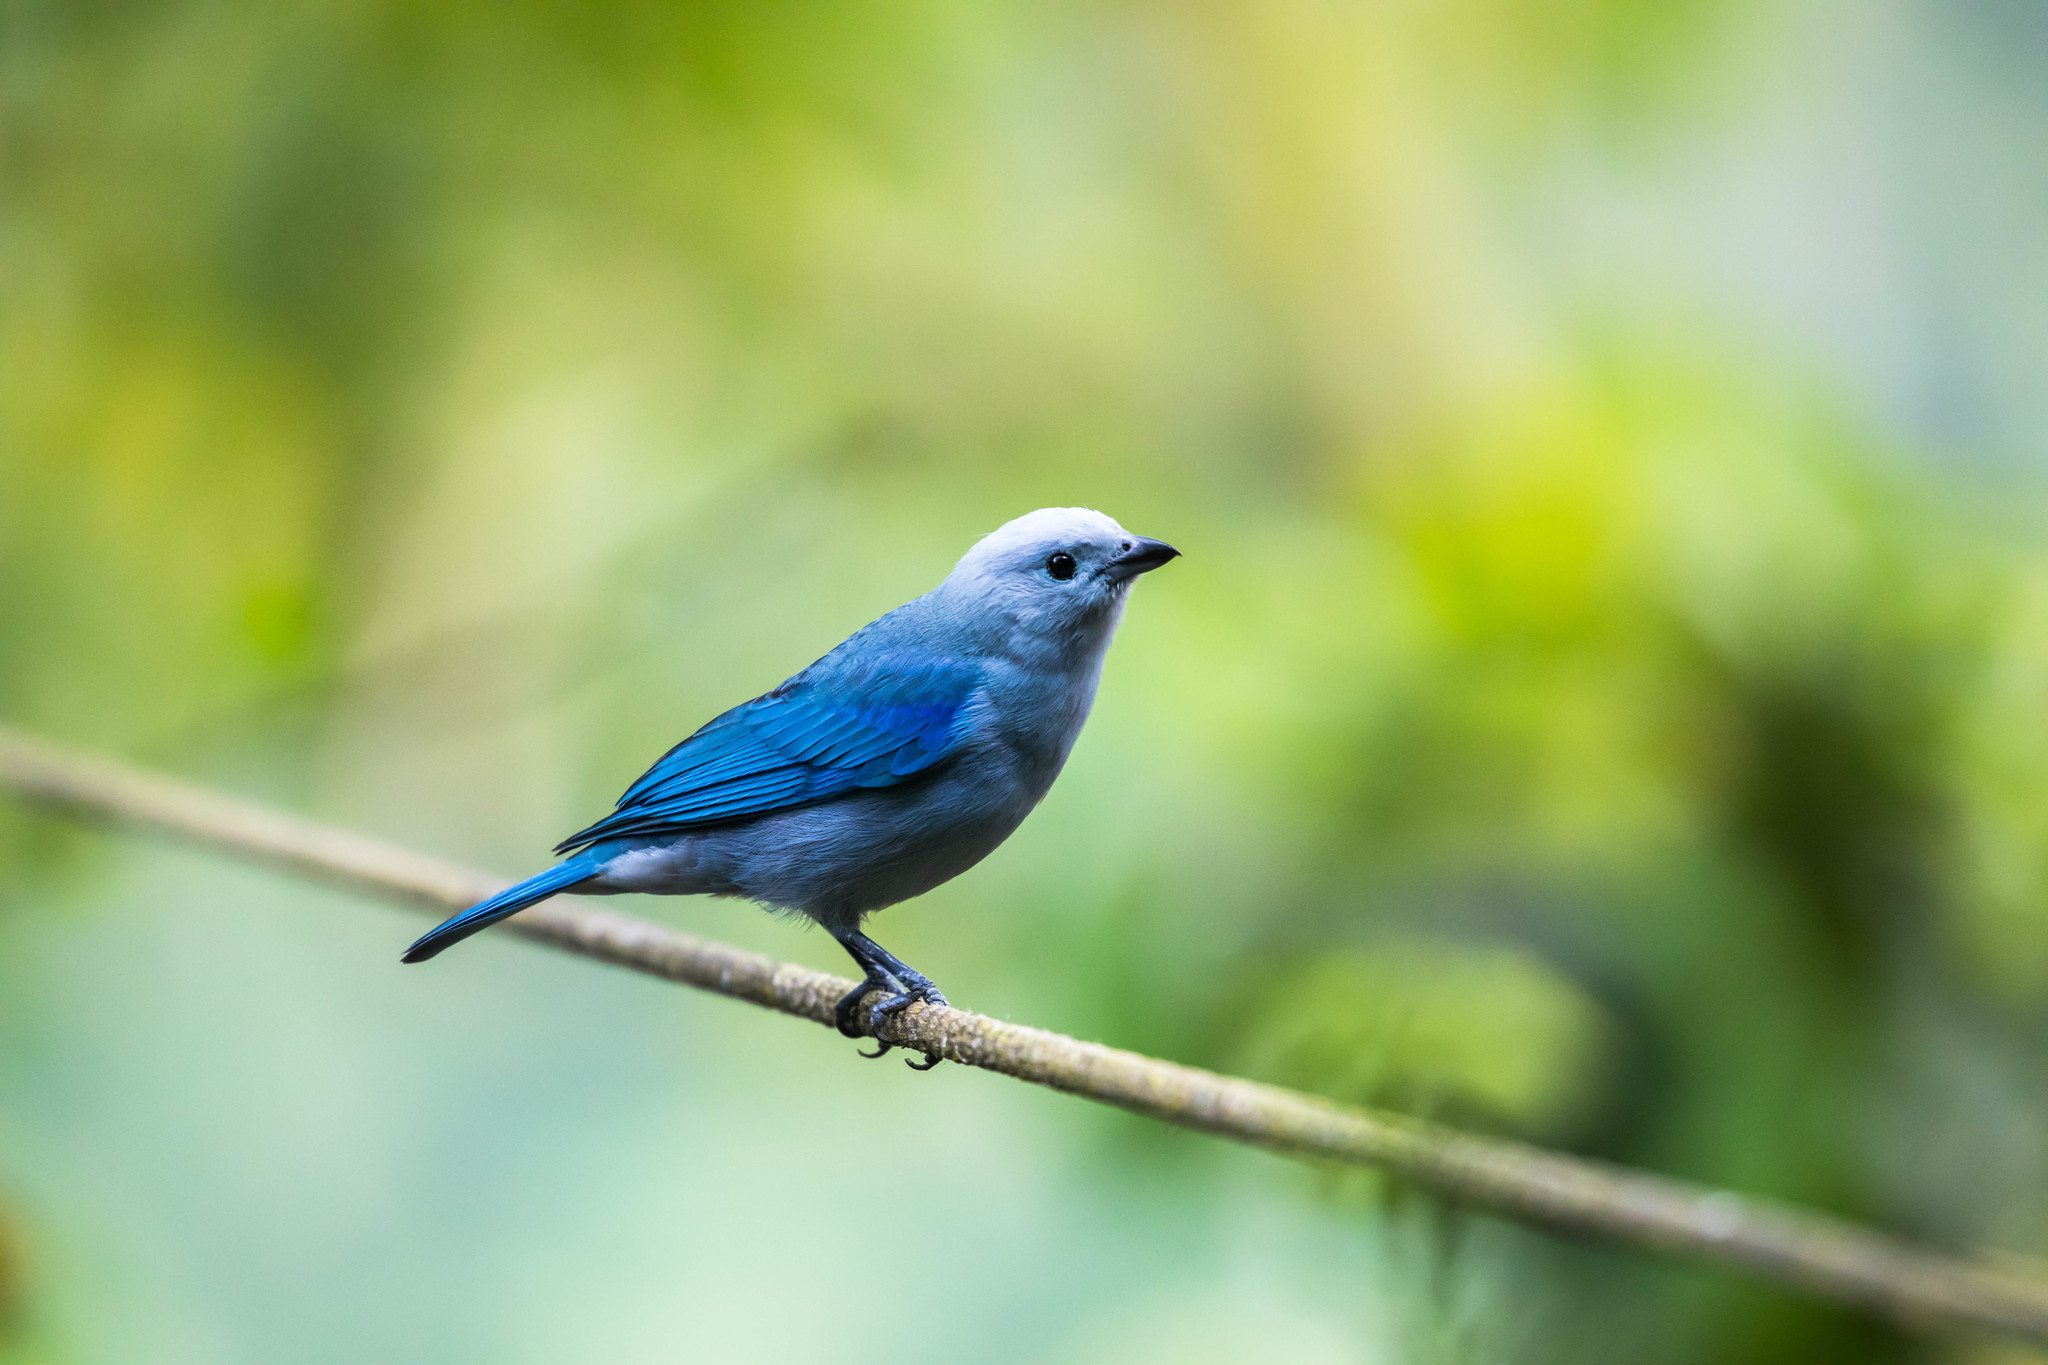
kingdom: Animalia
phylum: Chordata
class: Aves
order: Passeriformes
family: Thraupidae
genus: Thraupis
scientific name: Thraupis episcopus
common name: Blue-grey tanager
